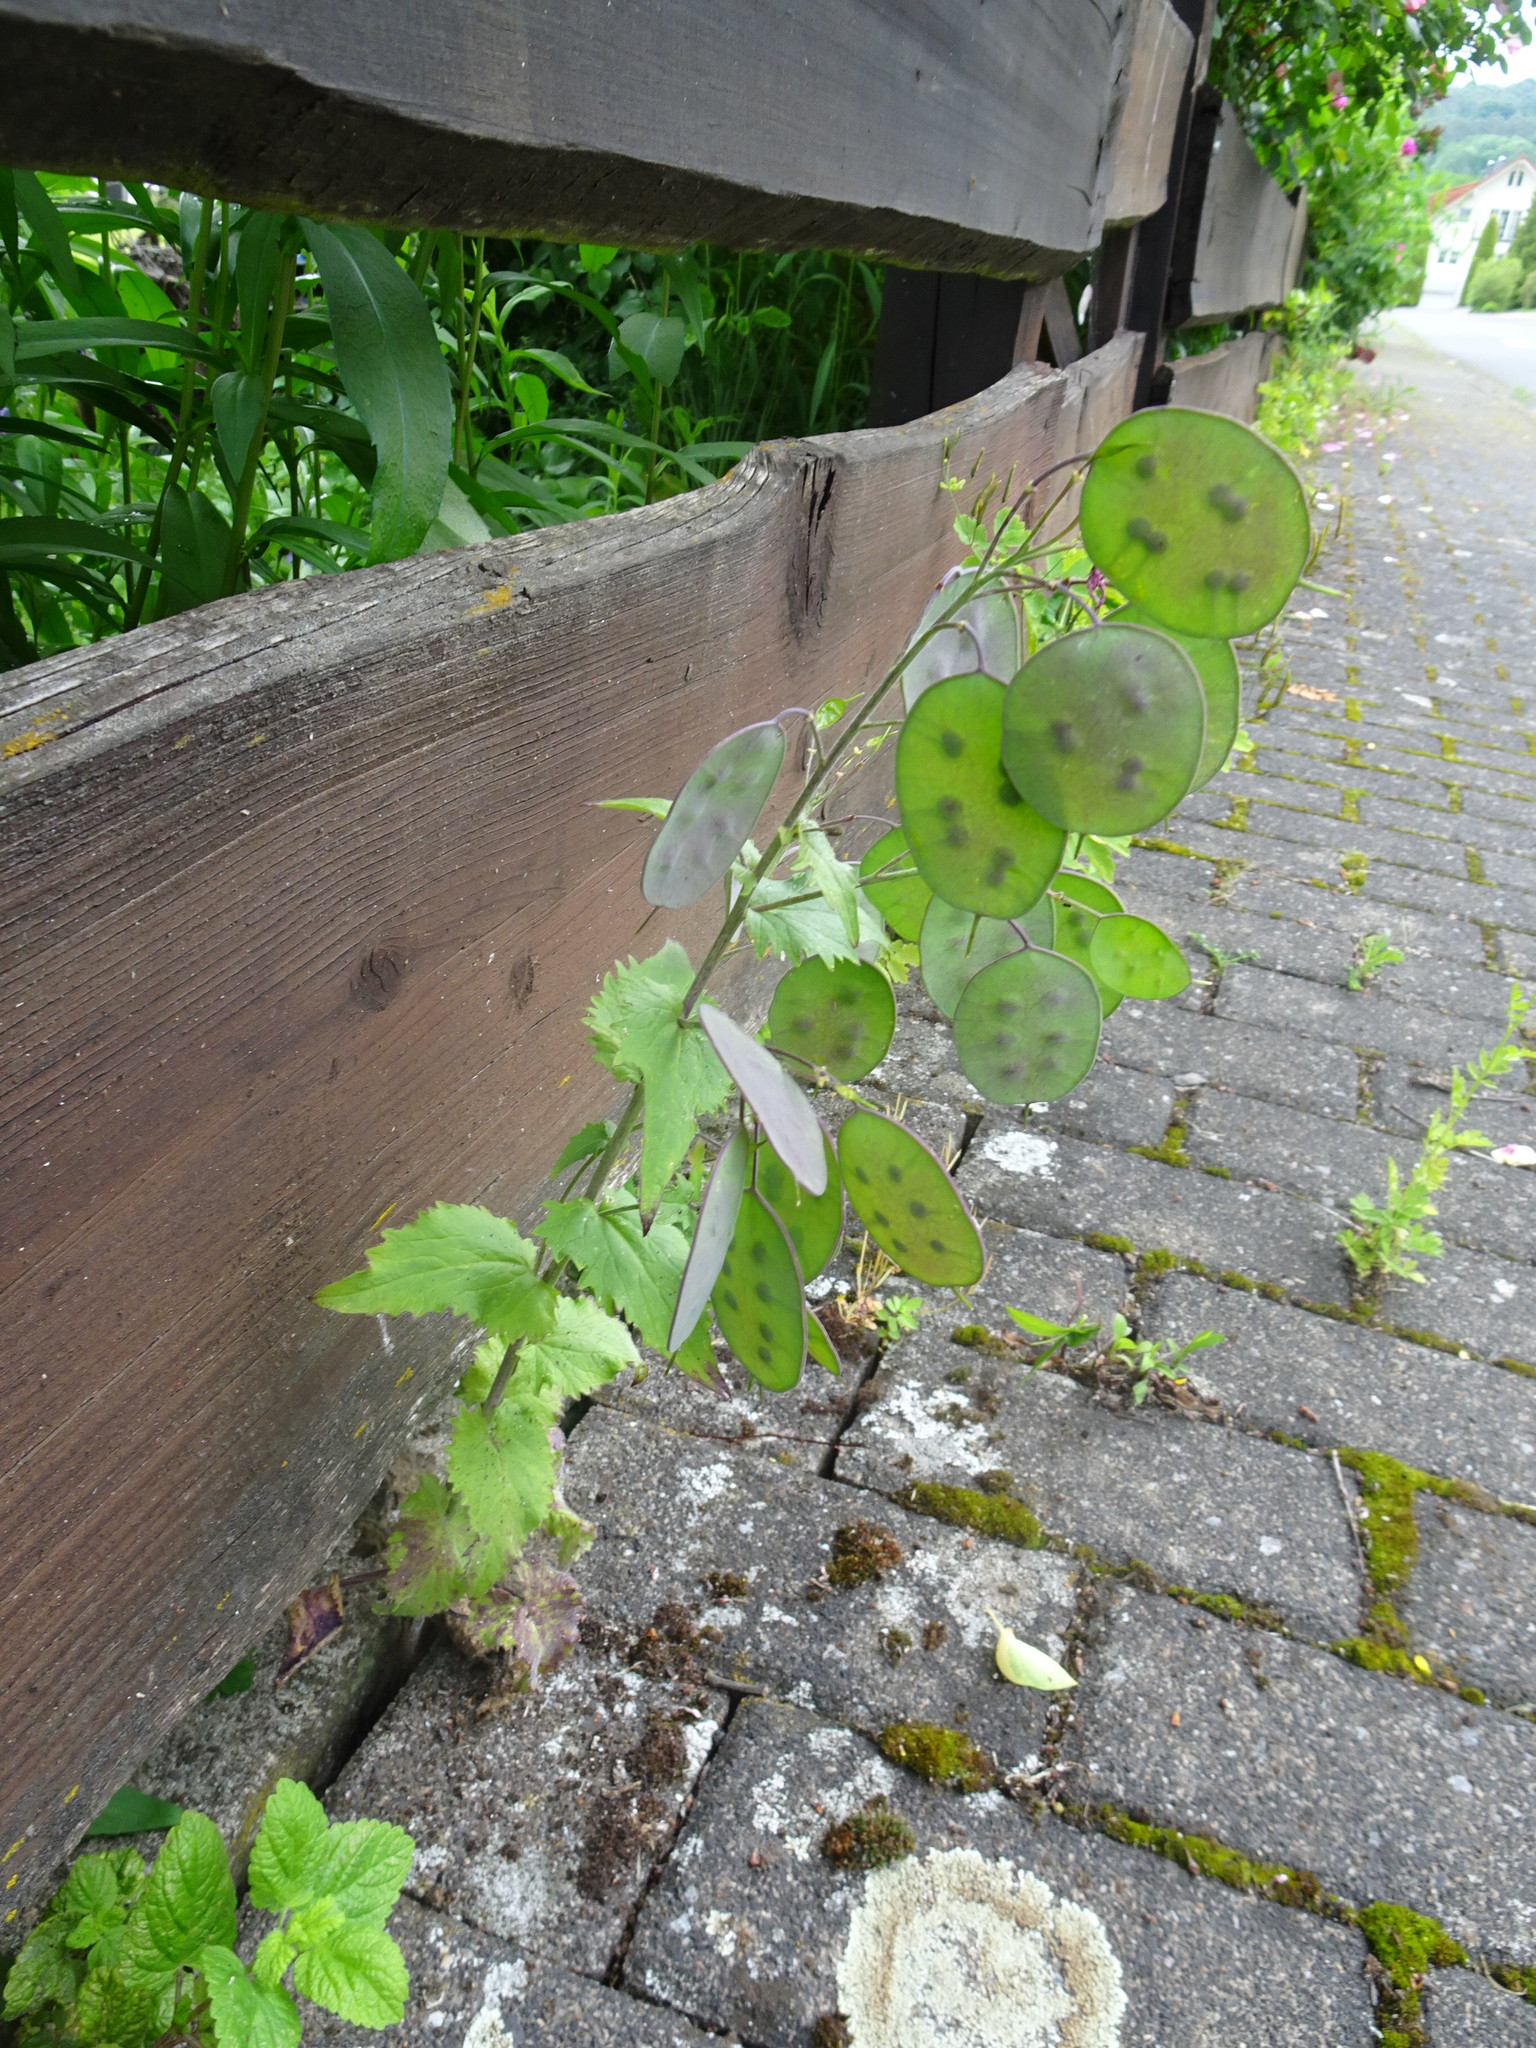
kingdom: Plantae
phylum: Tracheophyta
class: Magnoliopsida
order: Brassicales
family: Brassicaceae
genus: Lunaria
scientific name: Lunaria annua
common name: Honesty
